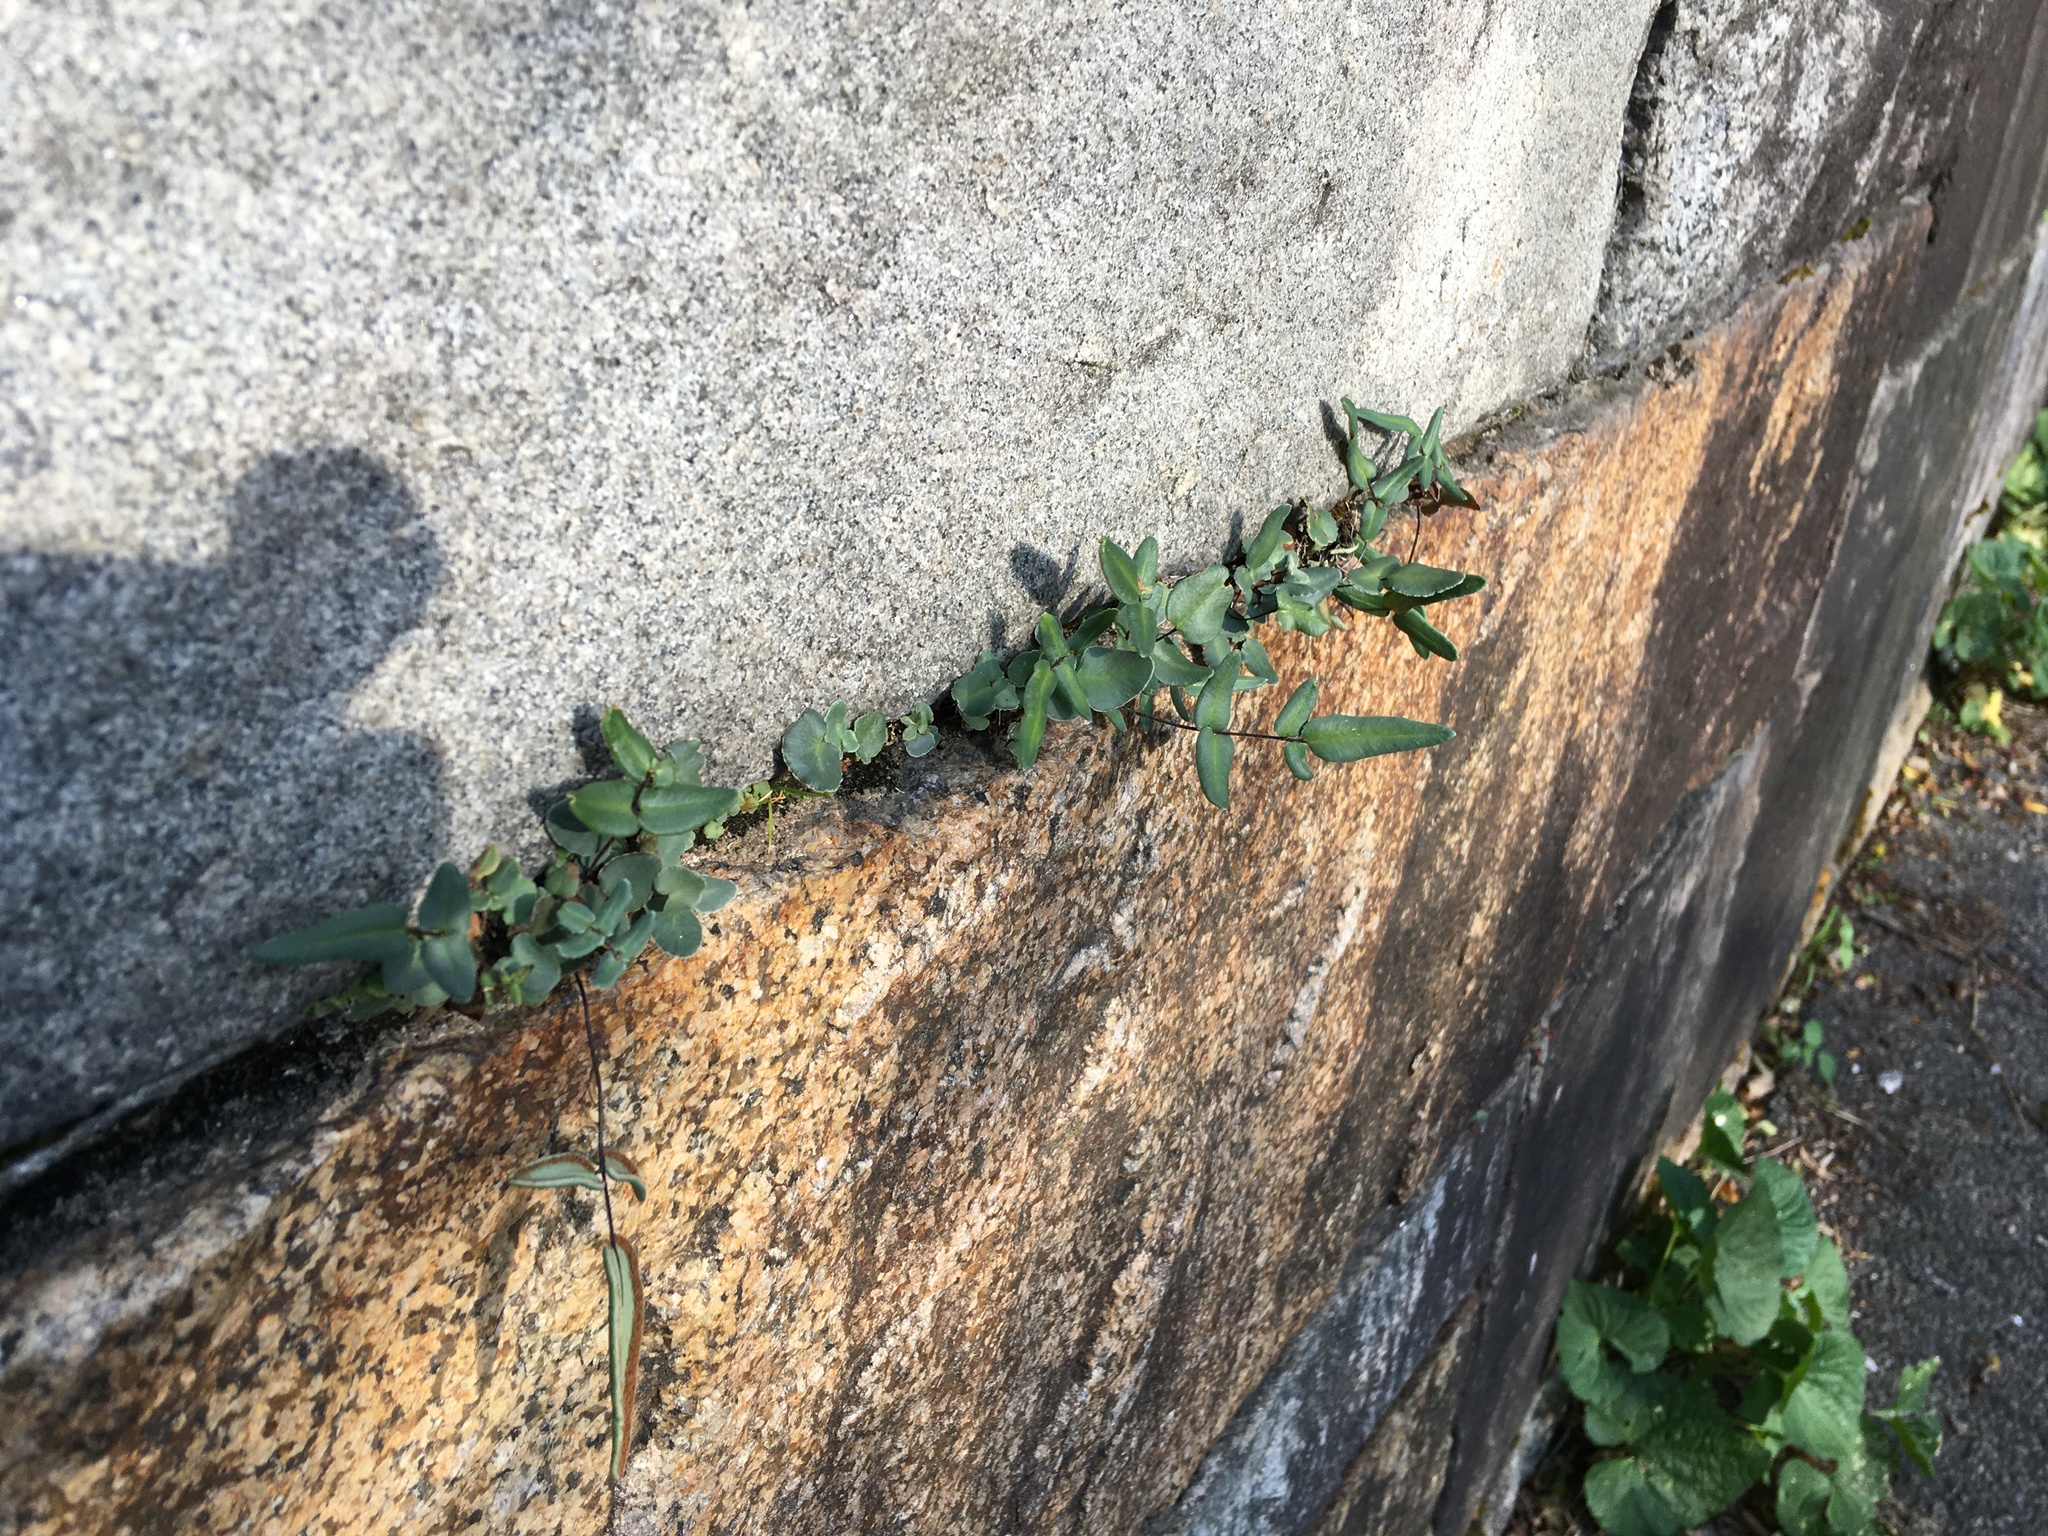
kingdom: Plantae
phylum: Tracheophyta
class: Polypodiopsida
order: Polypodiales
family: Pteridaceae
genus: Pellaea
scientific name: Pellaea atropurpurea
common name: Hairy cliffbrake
